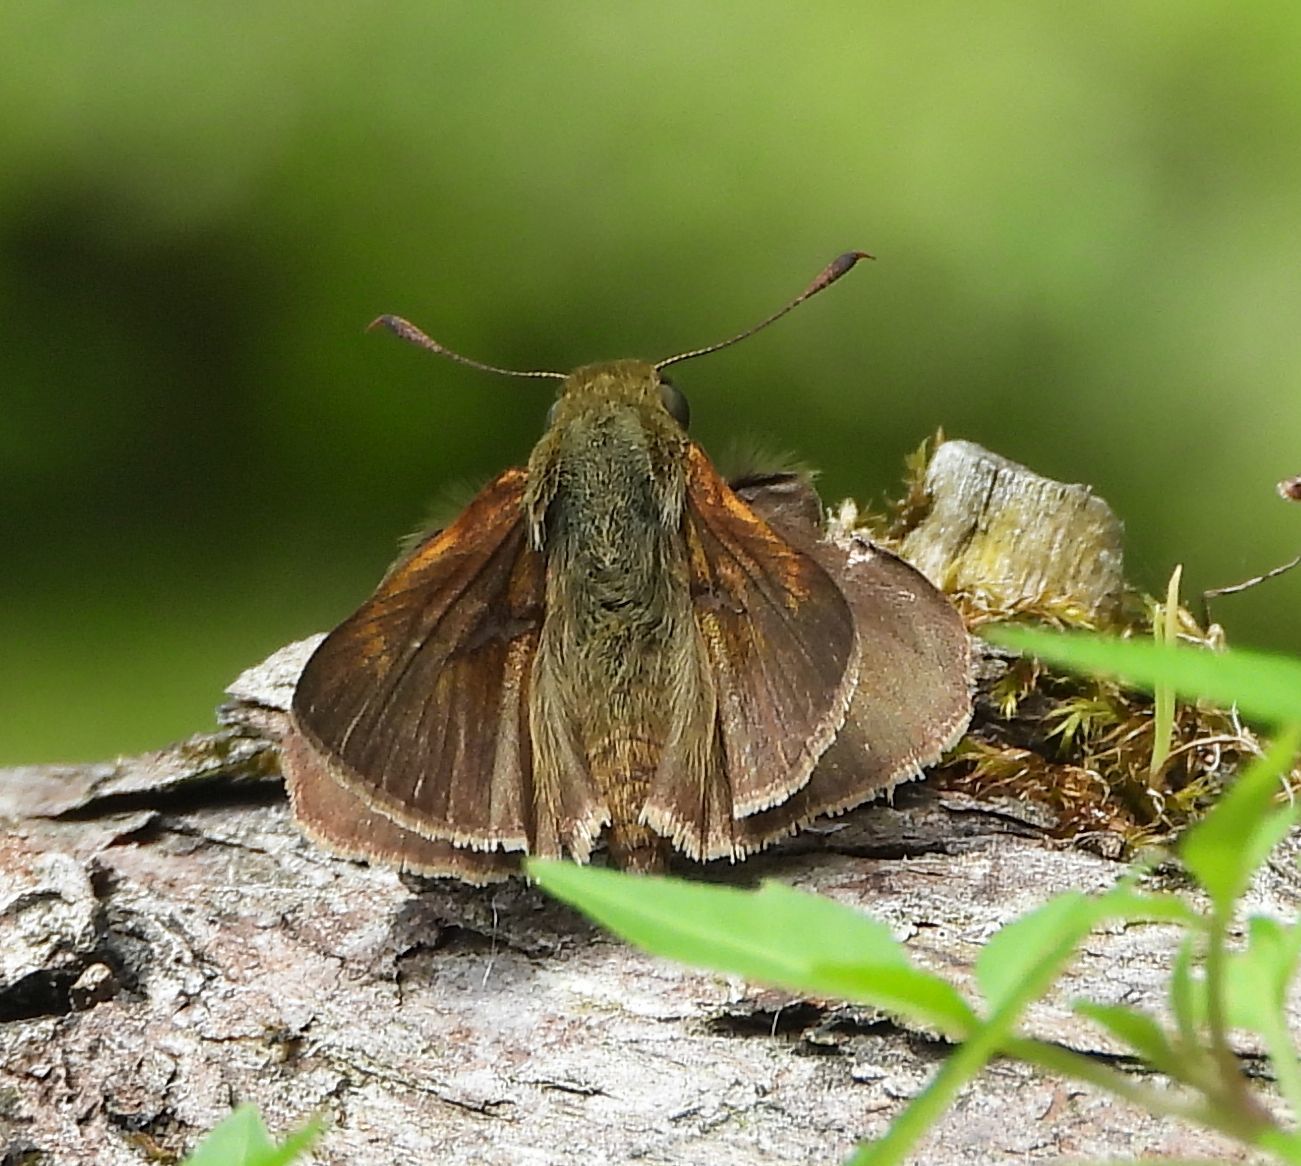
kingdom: Animalia
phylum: Arthropoda
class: Insecta
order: Lepidoptera
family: Hesperiidae
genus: Euphyes
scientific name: Euphyes vestris
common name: Dun skipper
